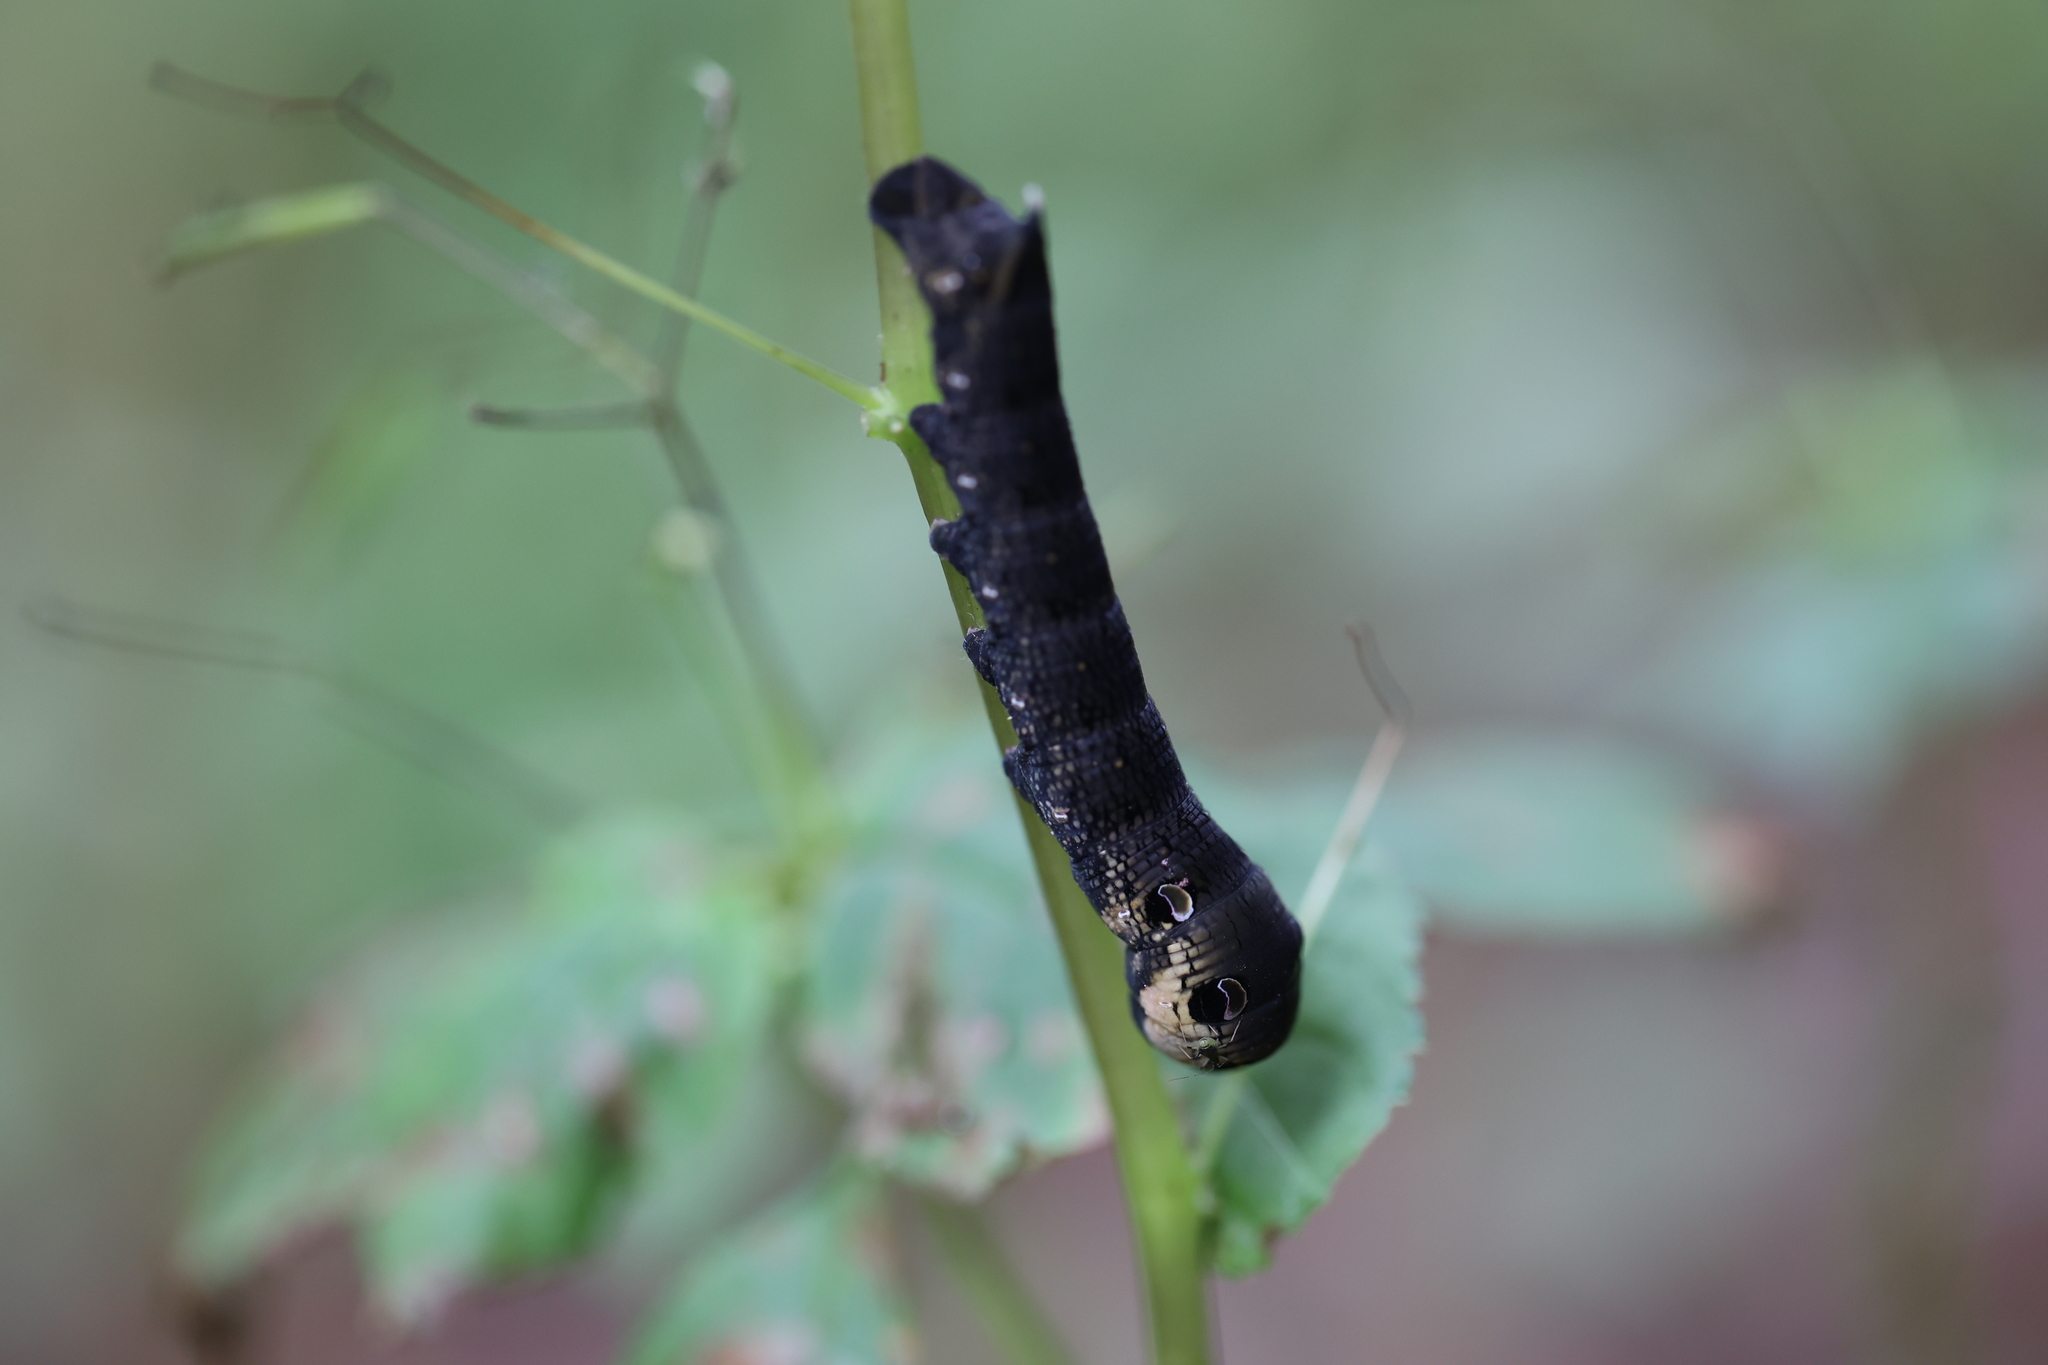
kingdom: Animalia
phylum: Arthropoda
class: Insecta
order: Lepidoptera
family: Sphingidae
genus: Deilephila
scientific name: Deilephila elpenor
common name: Elephant hawk-moth
